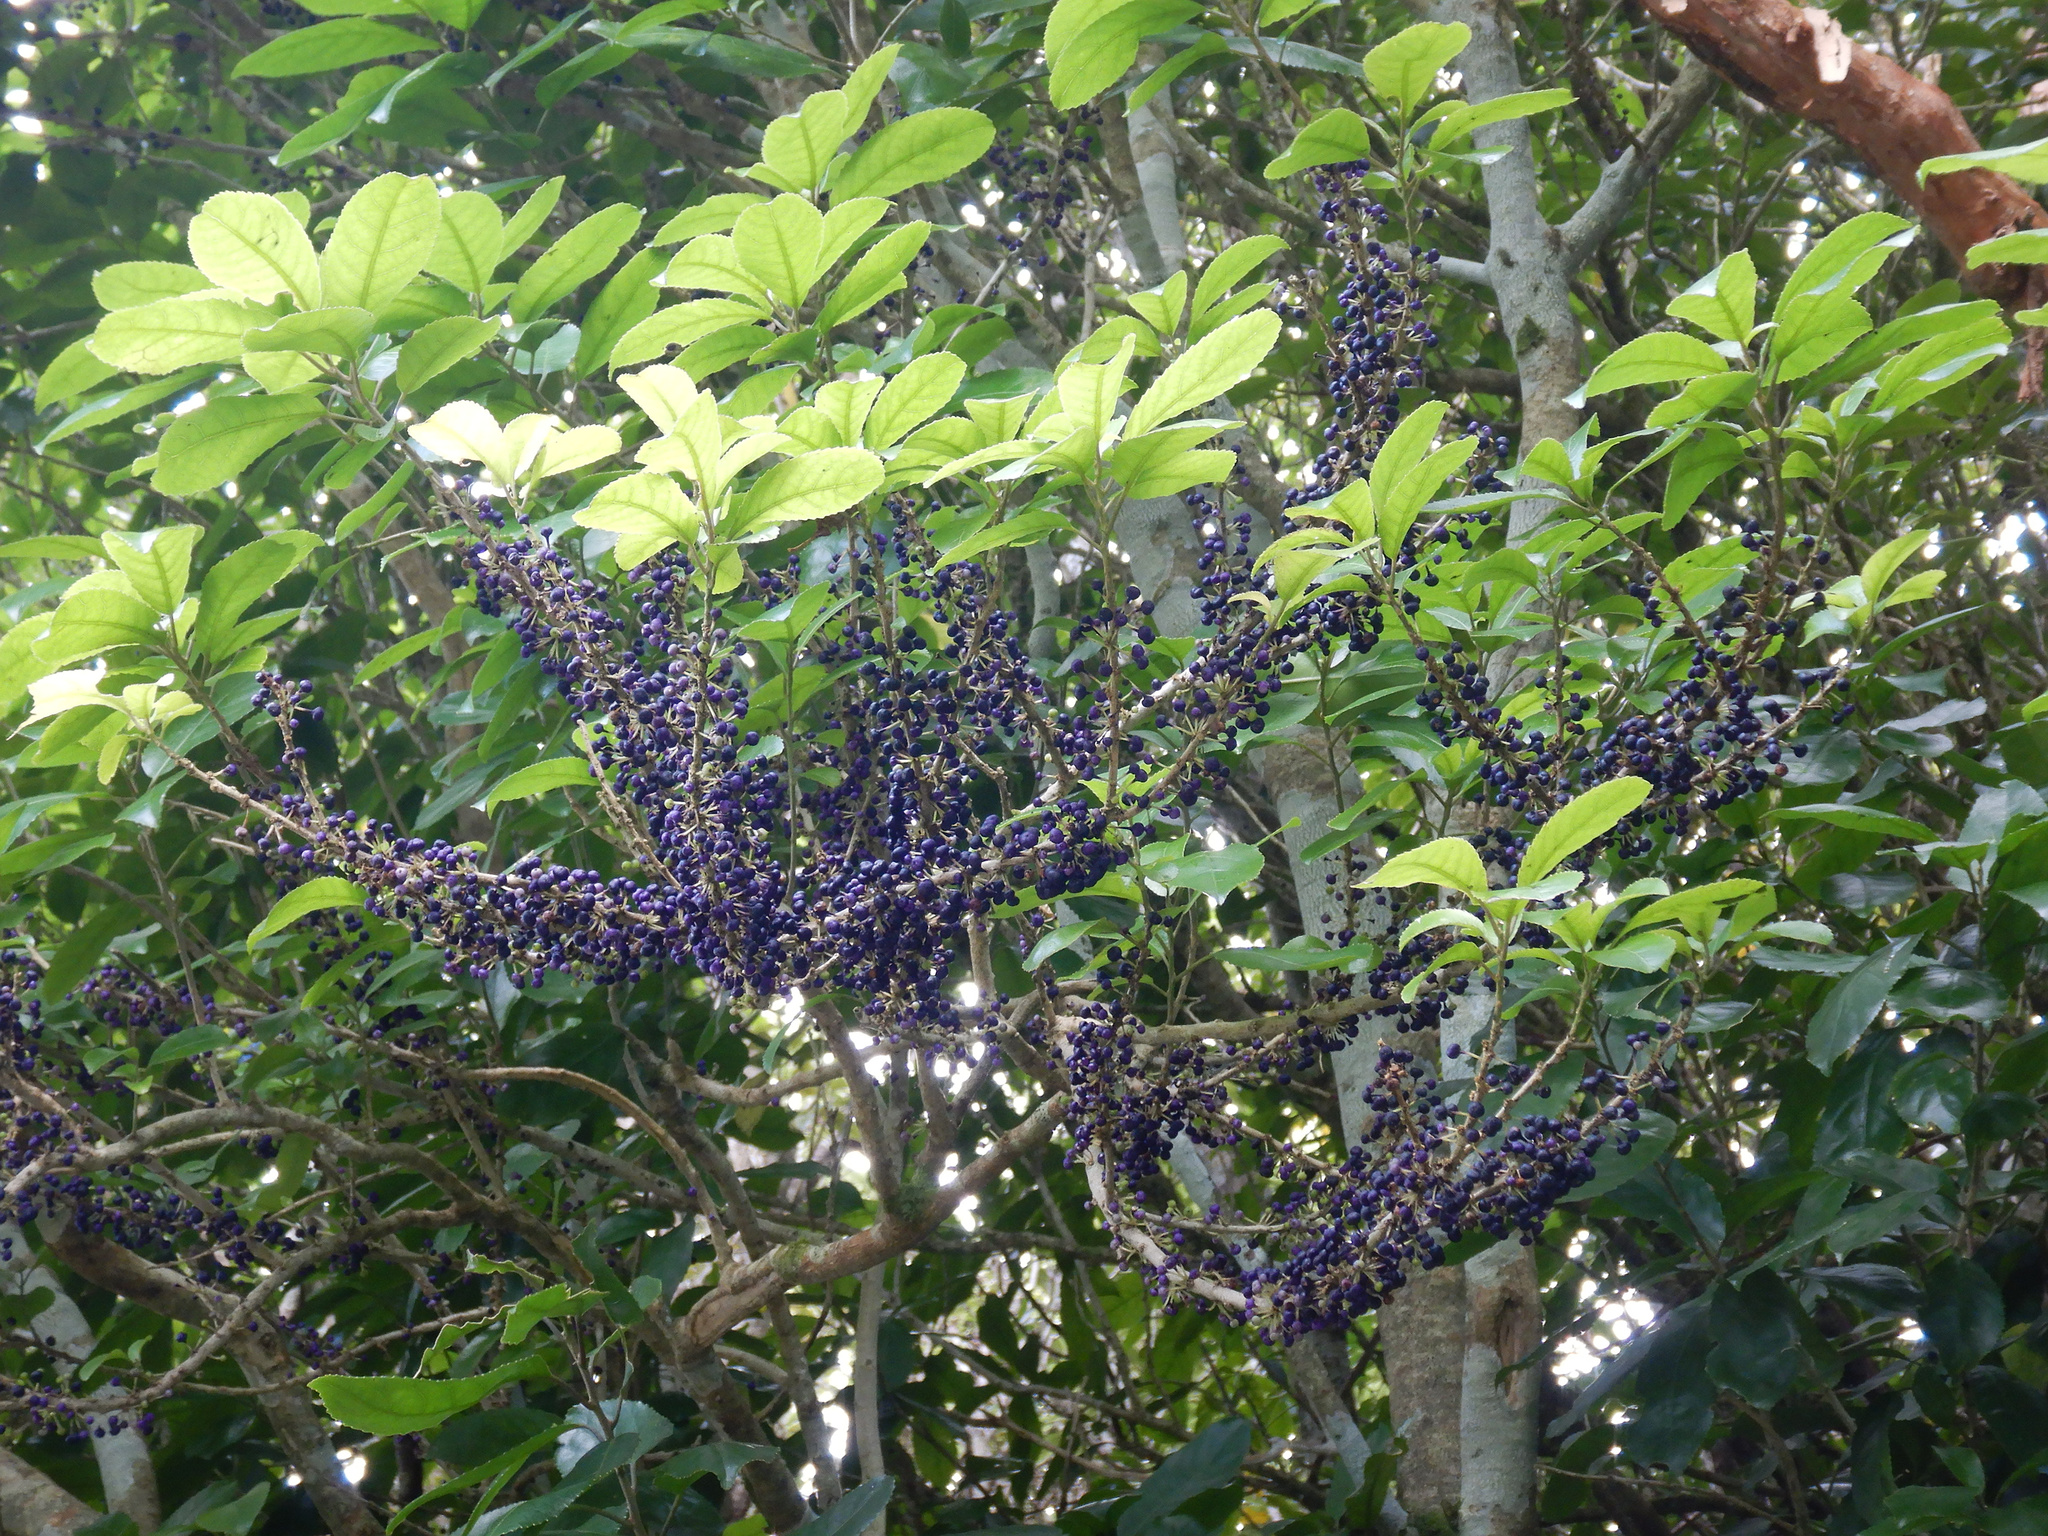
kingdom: Plantae
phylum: Tracheophyta
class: Magnoliopsida
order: Malpighiales
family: Violaceae
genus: Melicytus
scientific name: Melicytus ramiflorus
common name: Mahoe
